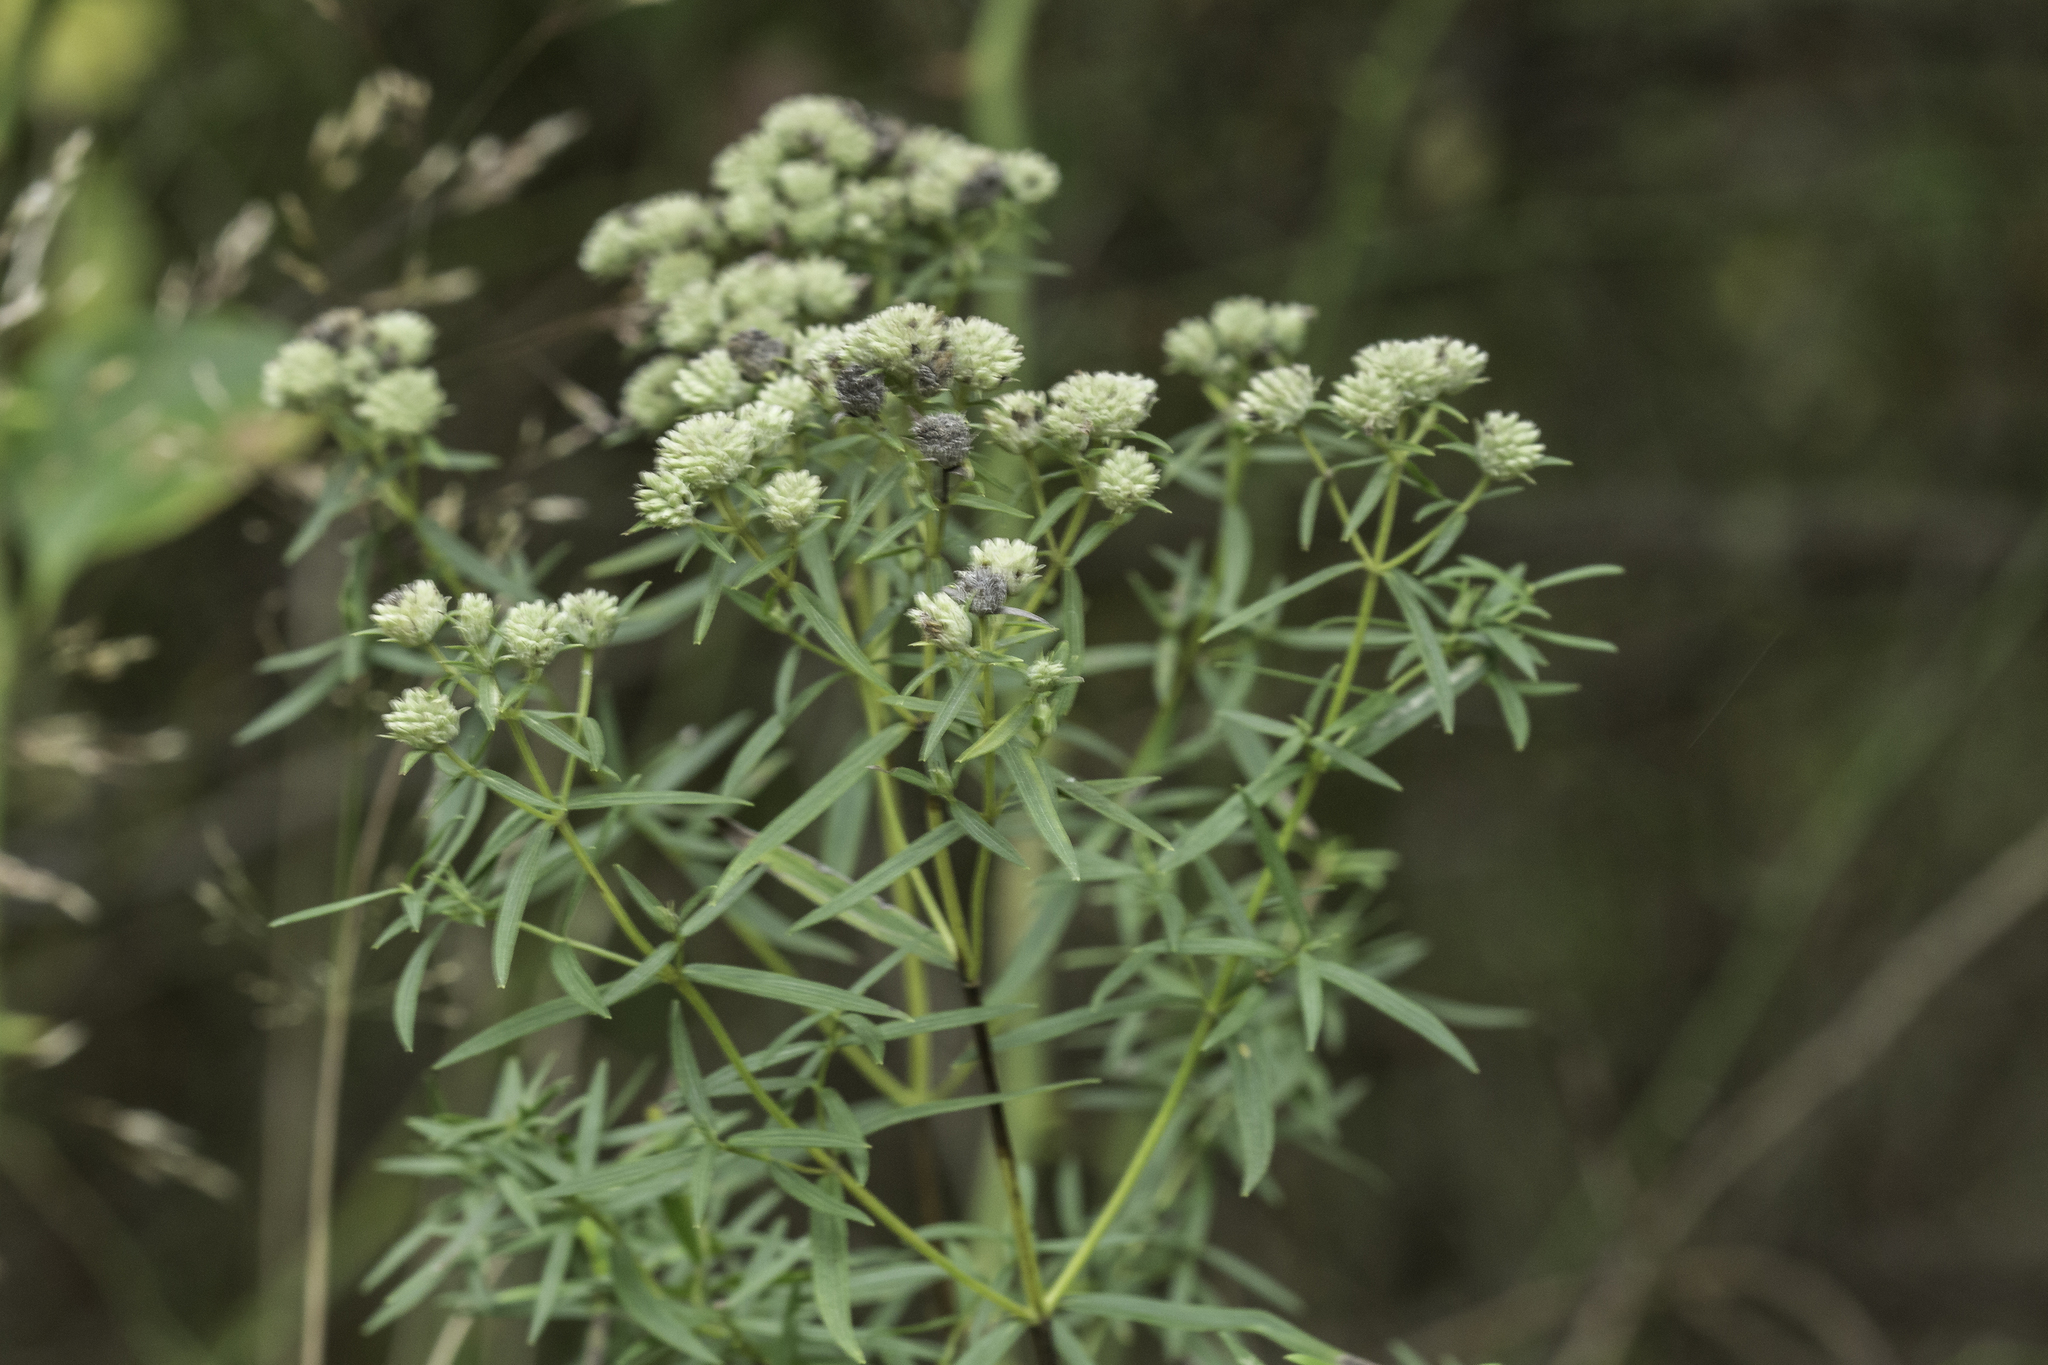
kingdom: Plantae
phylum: Tracheophyta
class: Magnoliopsida
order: Lamiales
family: Lamiaceae
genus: Pycnanthemum
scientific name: Pycnanthemum tenuifolium
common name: Narrow-leaf mountain-mint
